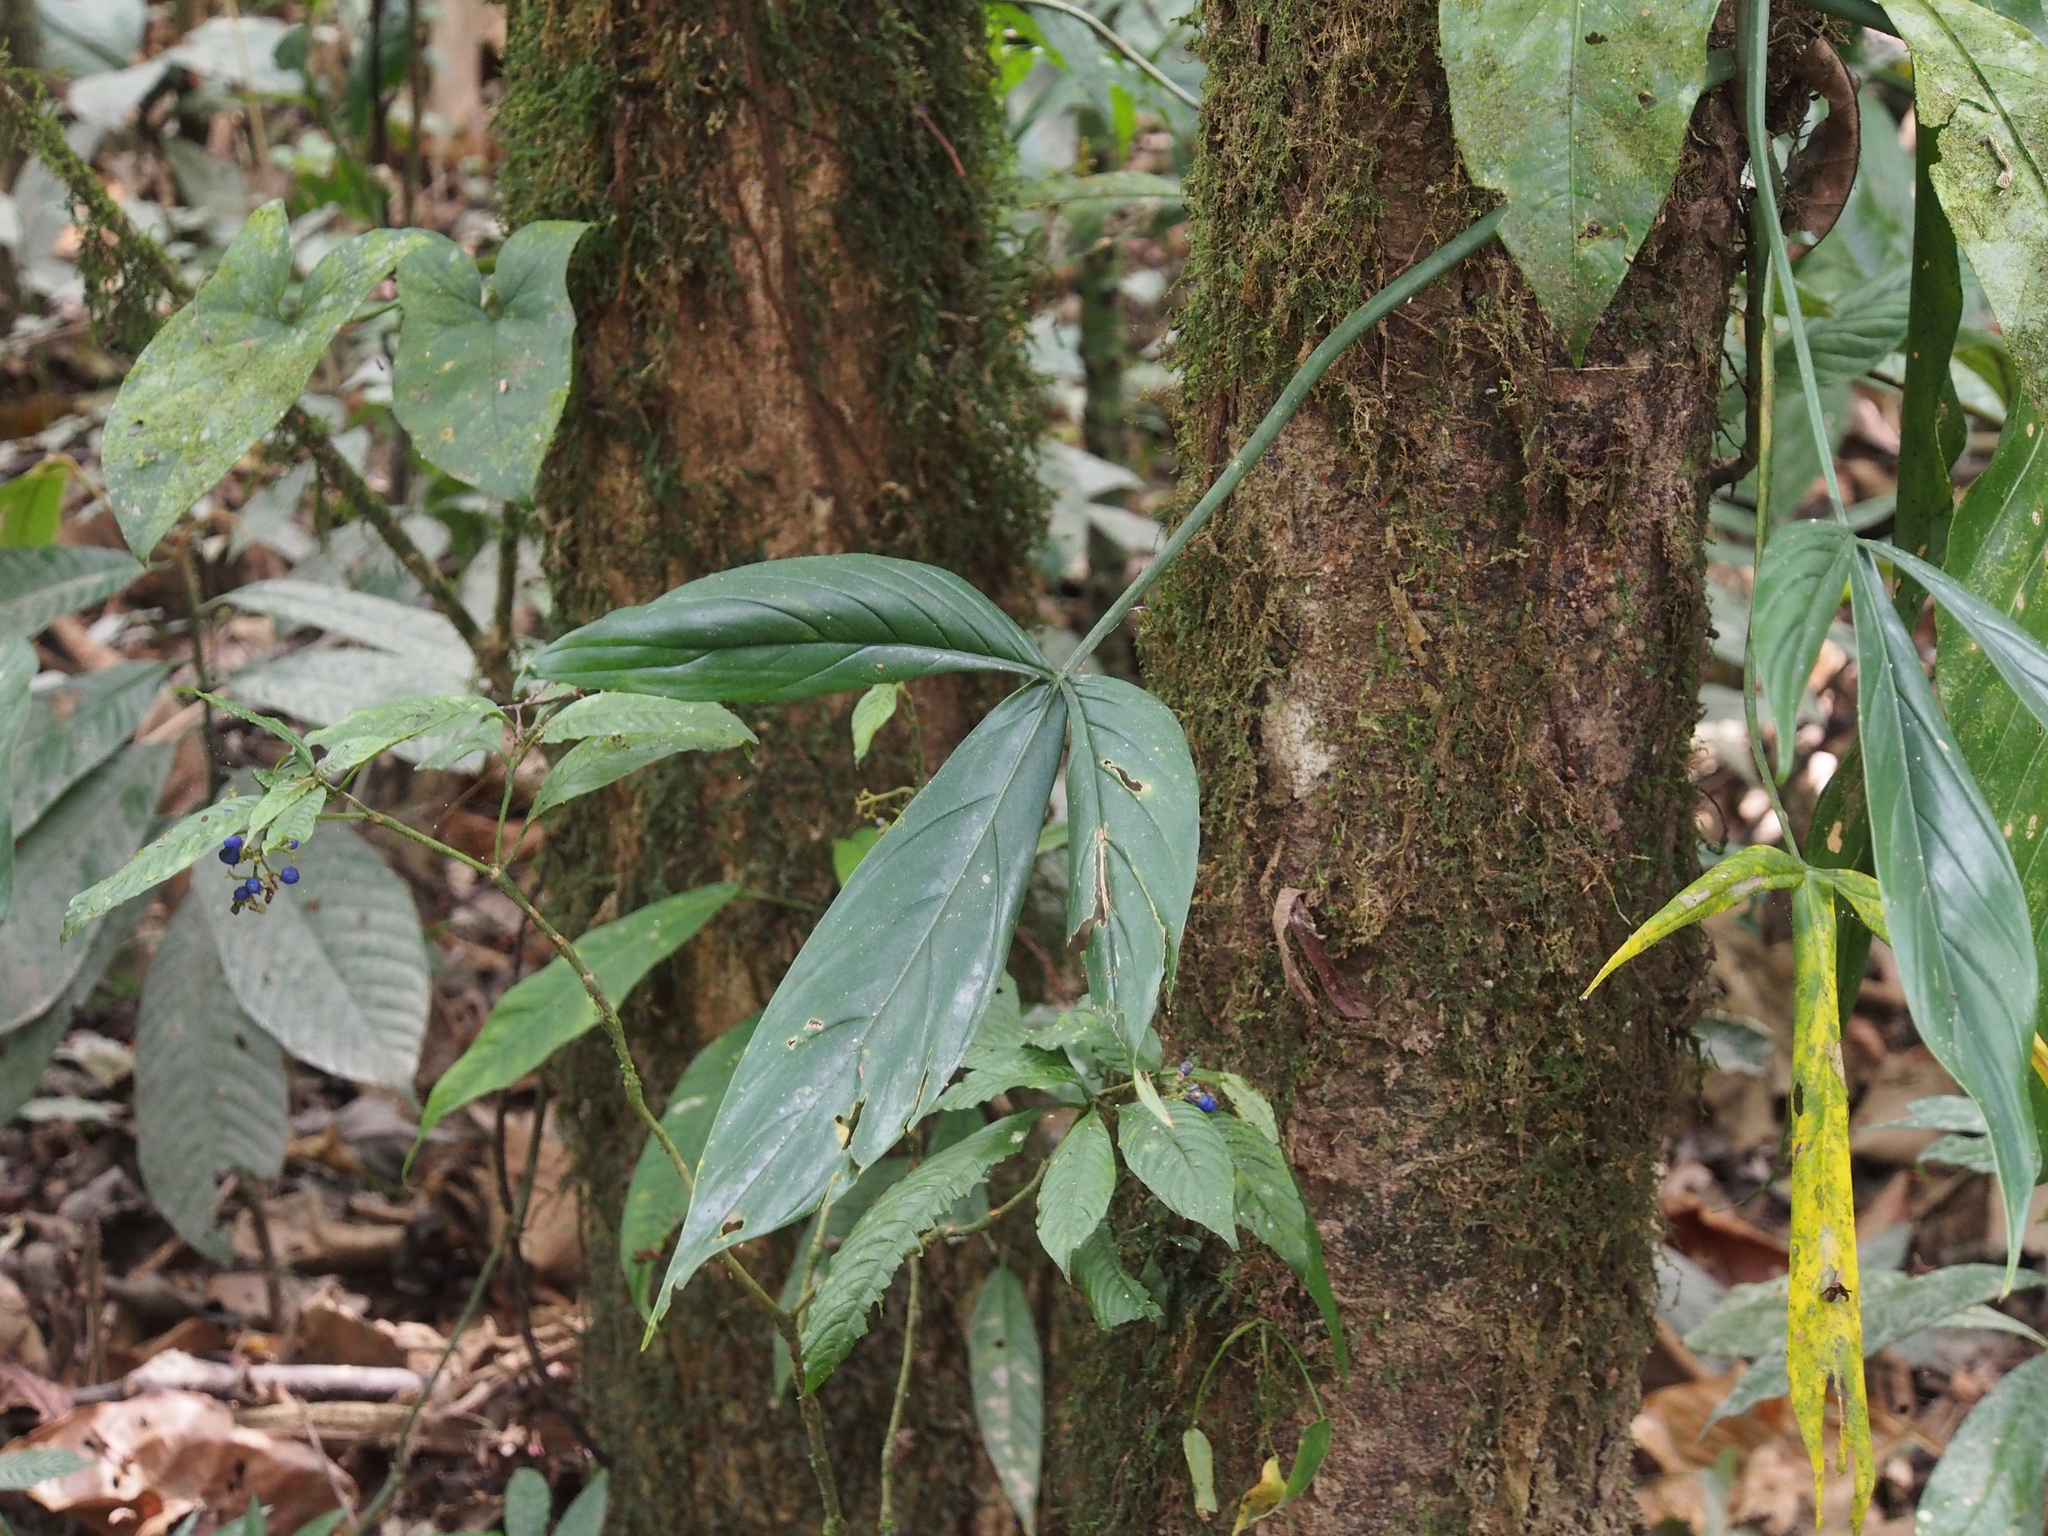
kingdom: Plantae
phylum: Tracheophyta
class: Liliopsida
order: Alismatales
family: Araceae
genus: Philodendron
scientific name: Philodendron anisotomum
